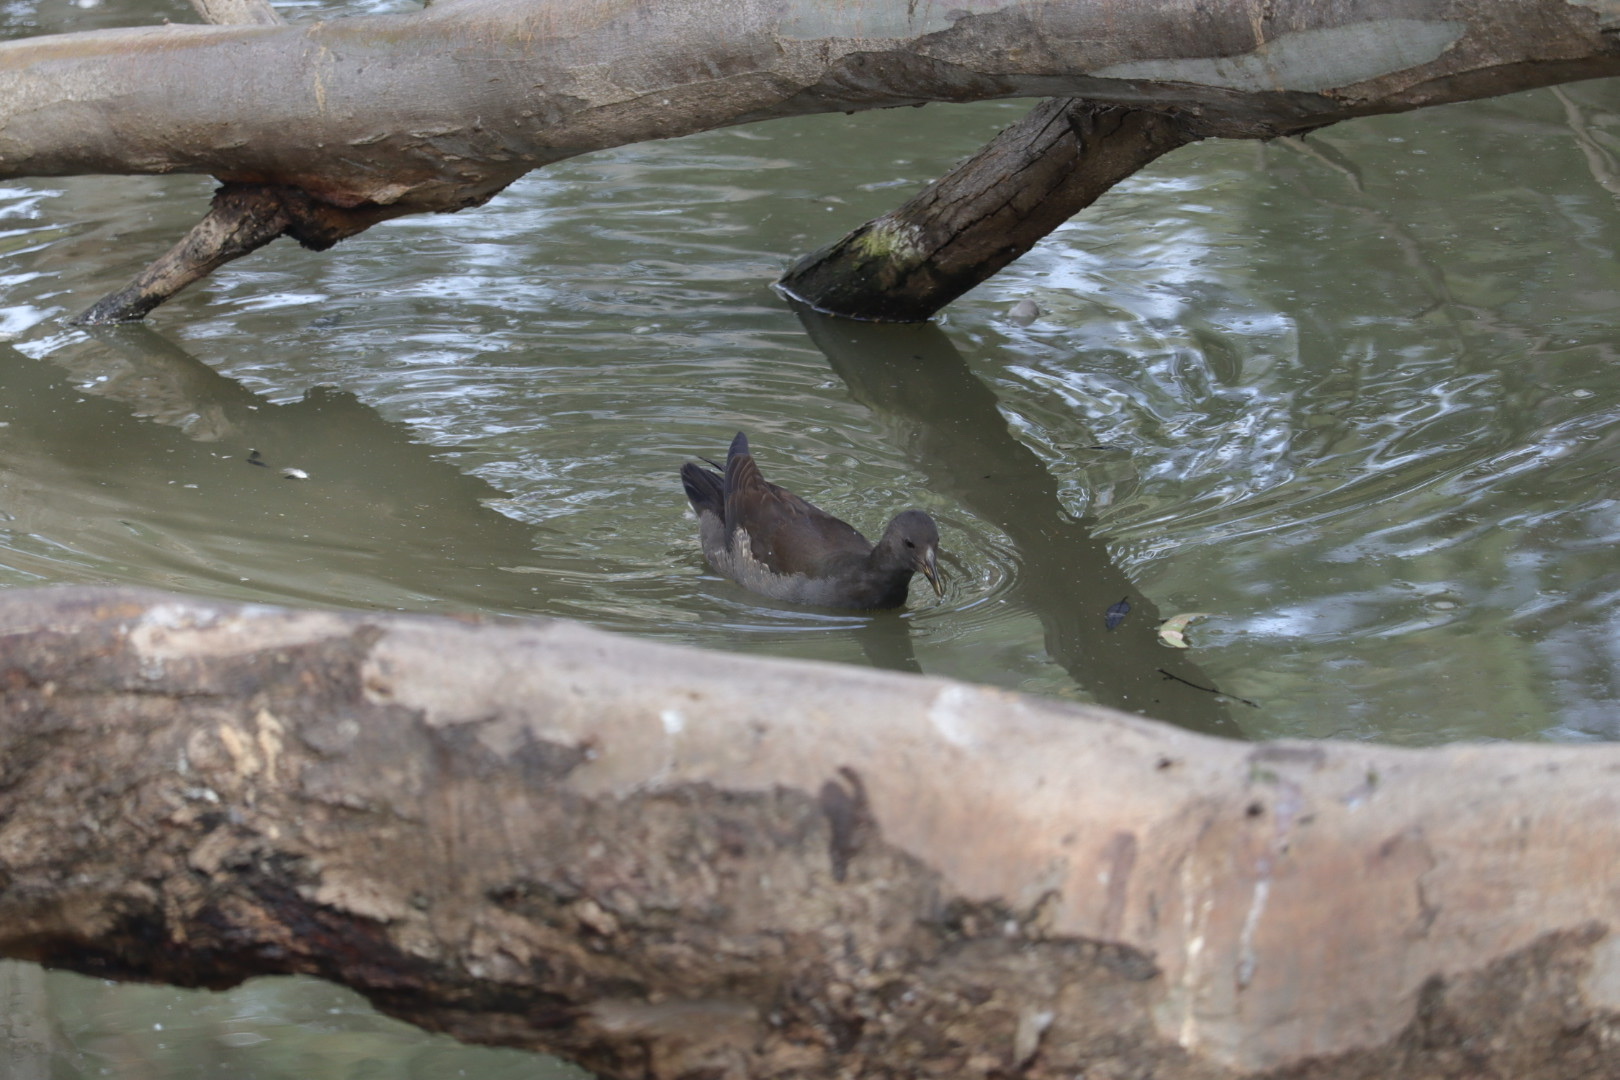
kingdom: Animalia
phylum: Chordata
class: Aves
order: Gruiformes
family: Rallidae
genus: Gallinula
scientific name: Gallinula tenebrosa
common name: Dusky moorhen
